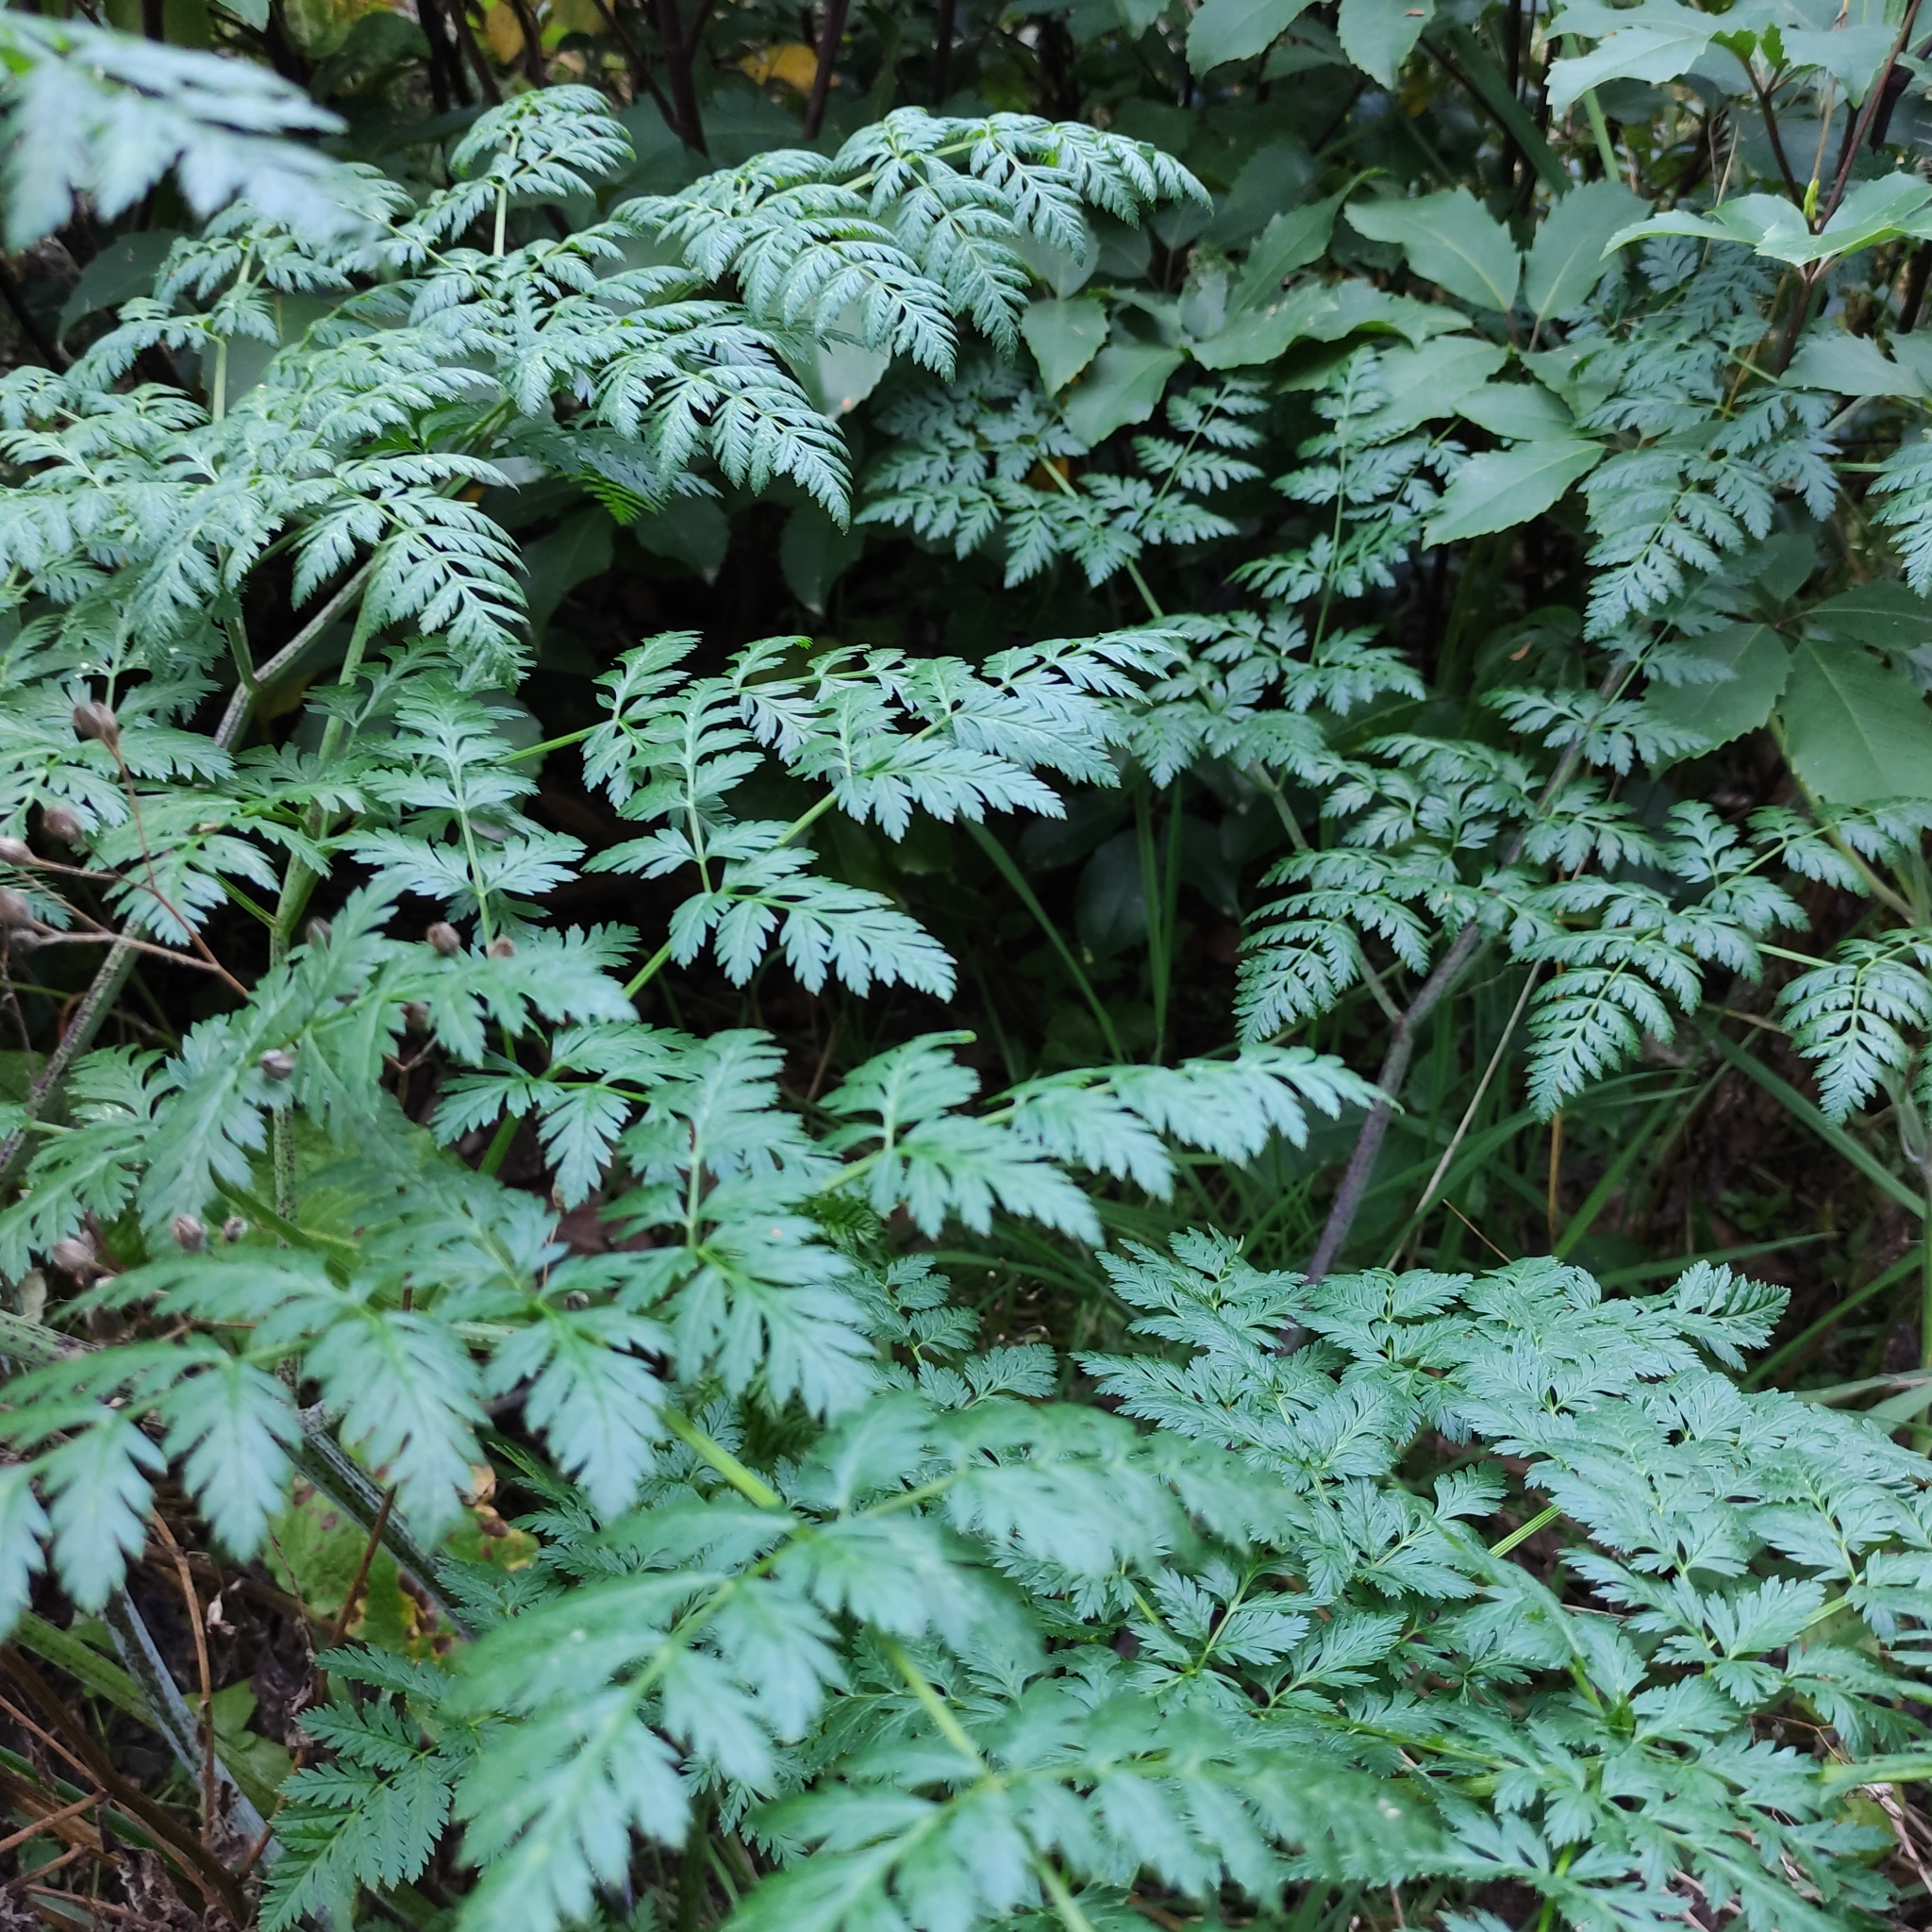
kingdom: Plantae
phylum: Tracheophyta
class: Magnoliopsida
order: Apiales
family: Apiaceae
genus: Conium
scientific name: Conium maculatum
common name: Hemlock
